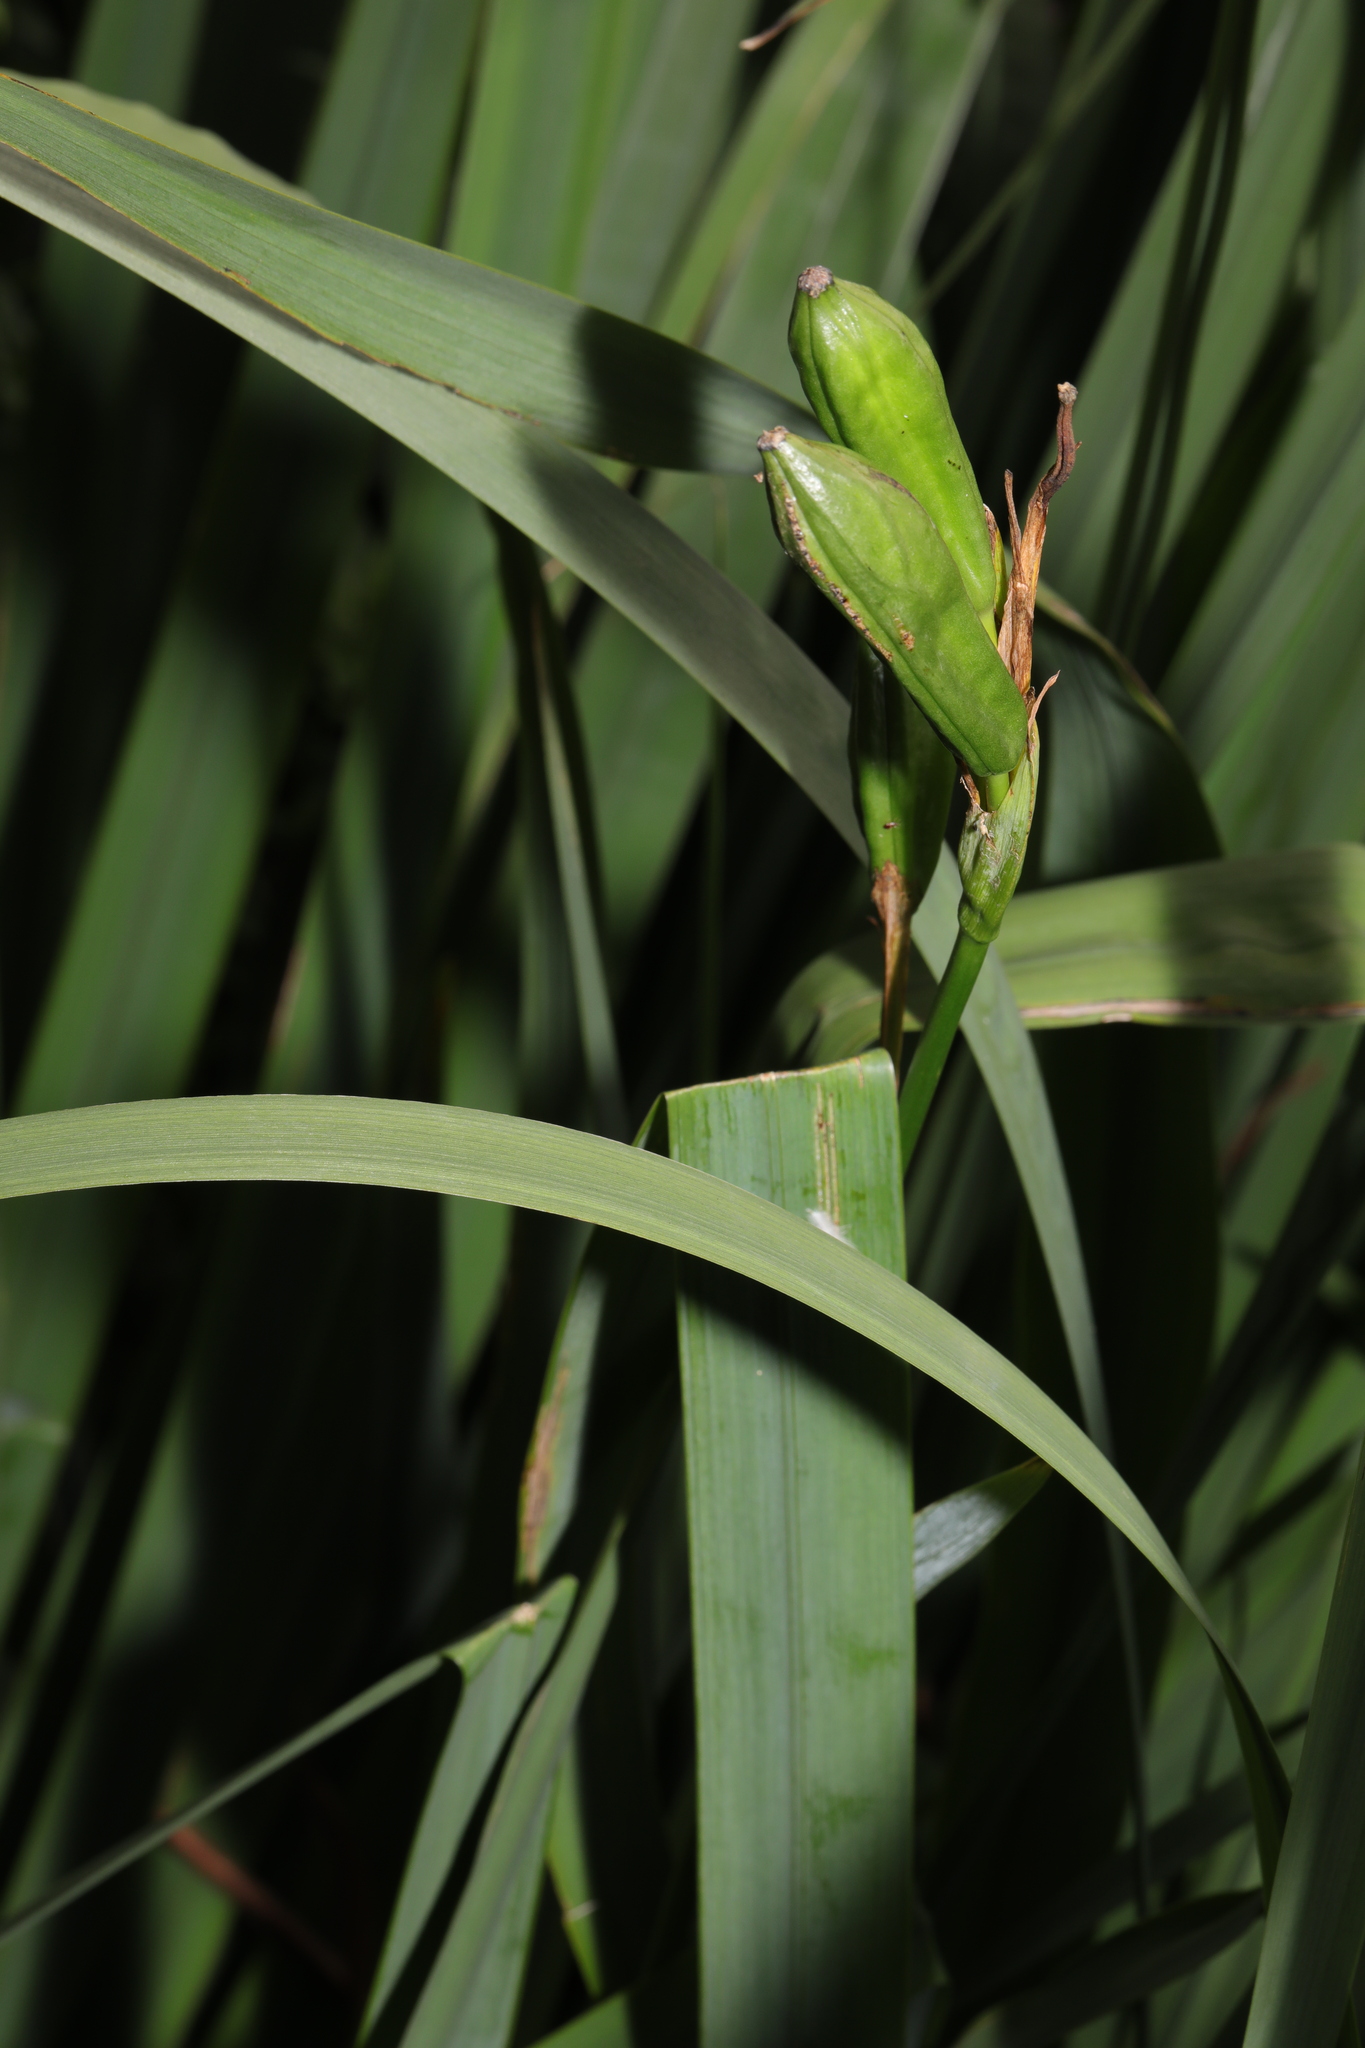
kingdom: Plantae
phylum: Tracheophyta
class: Liliopsida
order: Asparagales
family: Iridaceae
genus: Iris
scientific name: Iris pseudacorus
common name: Yellow flag
